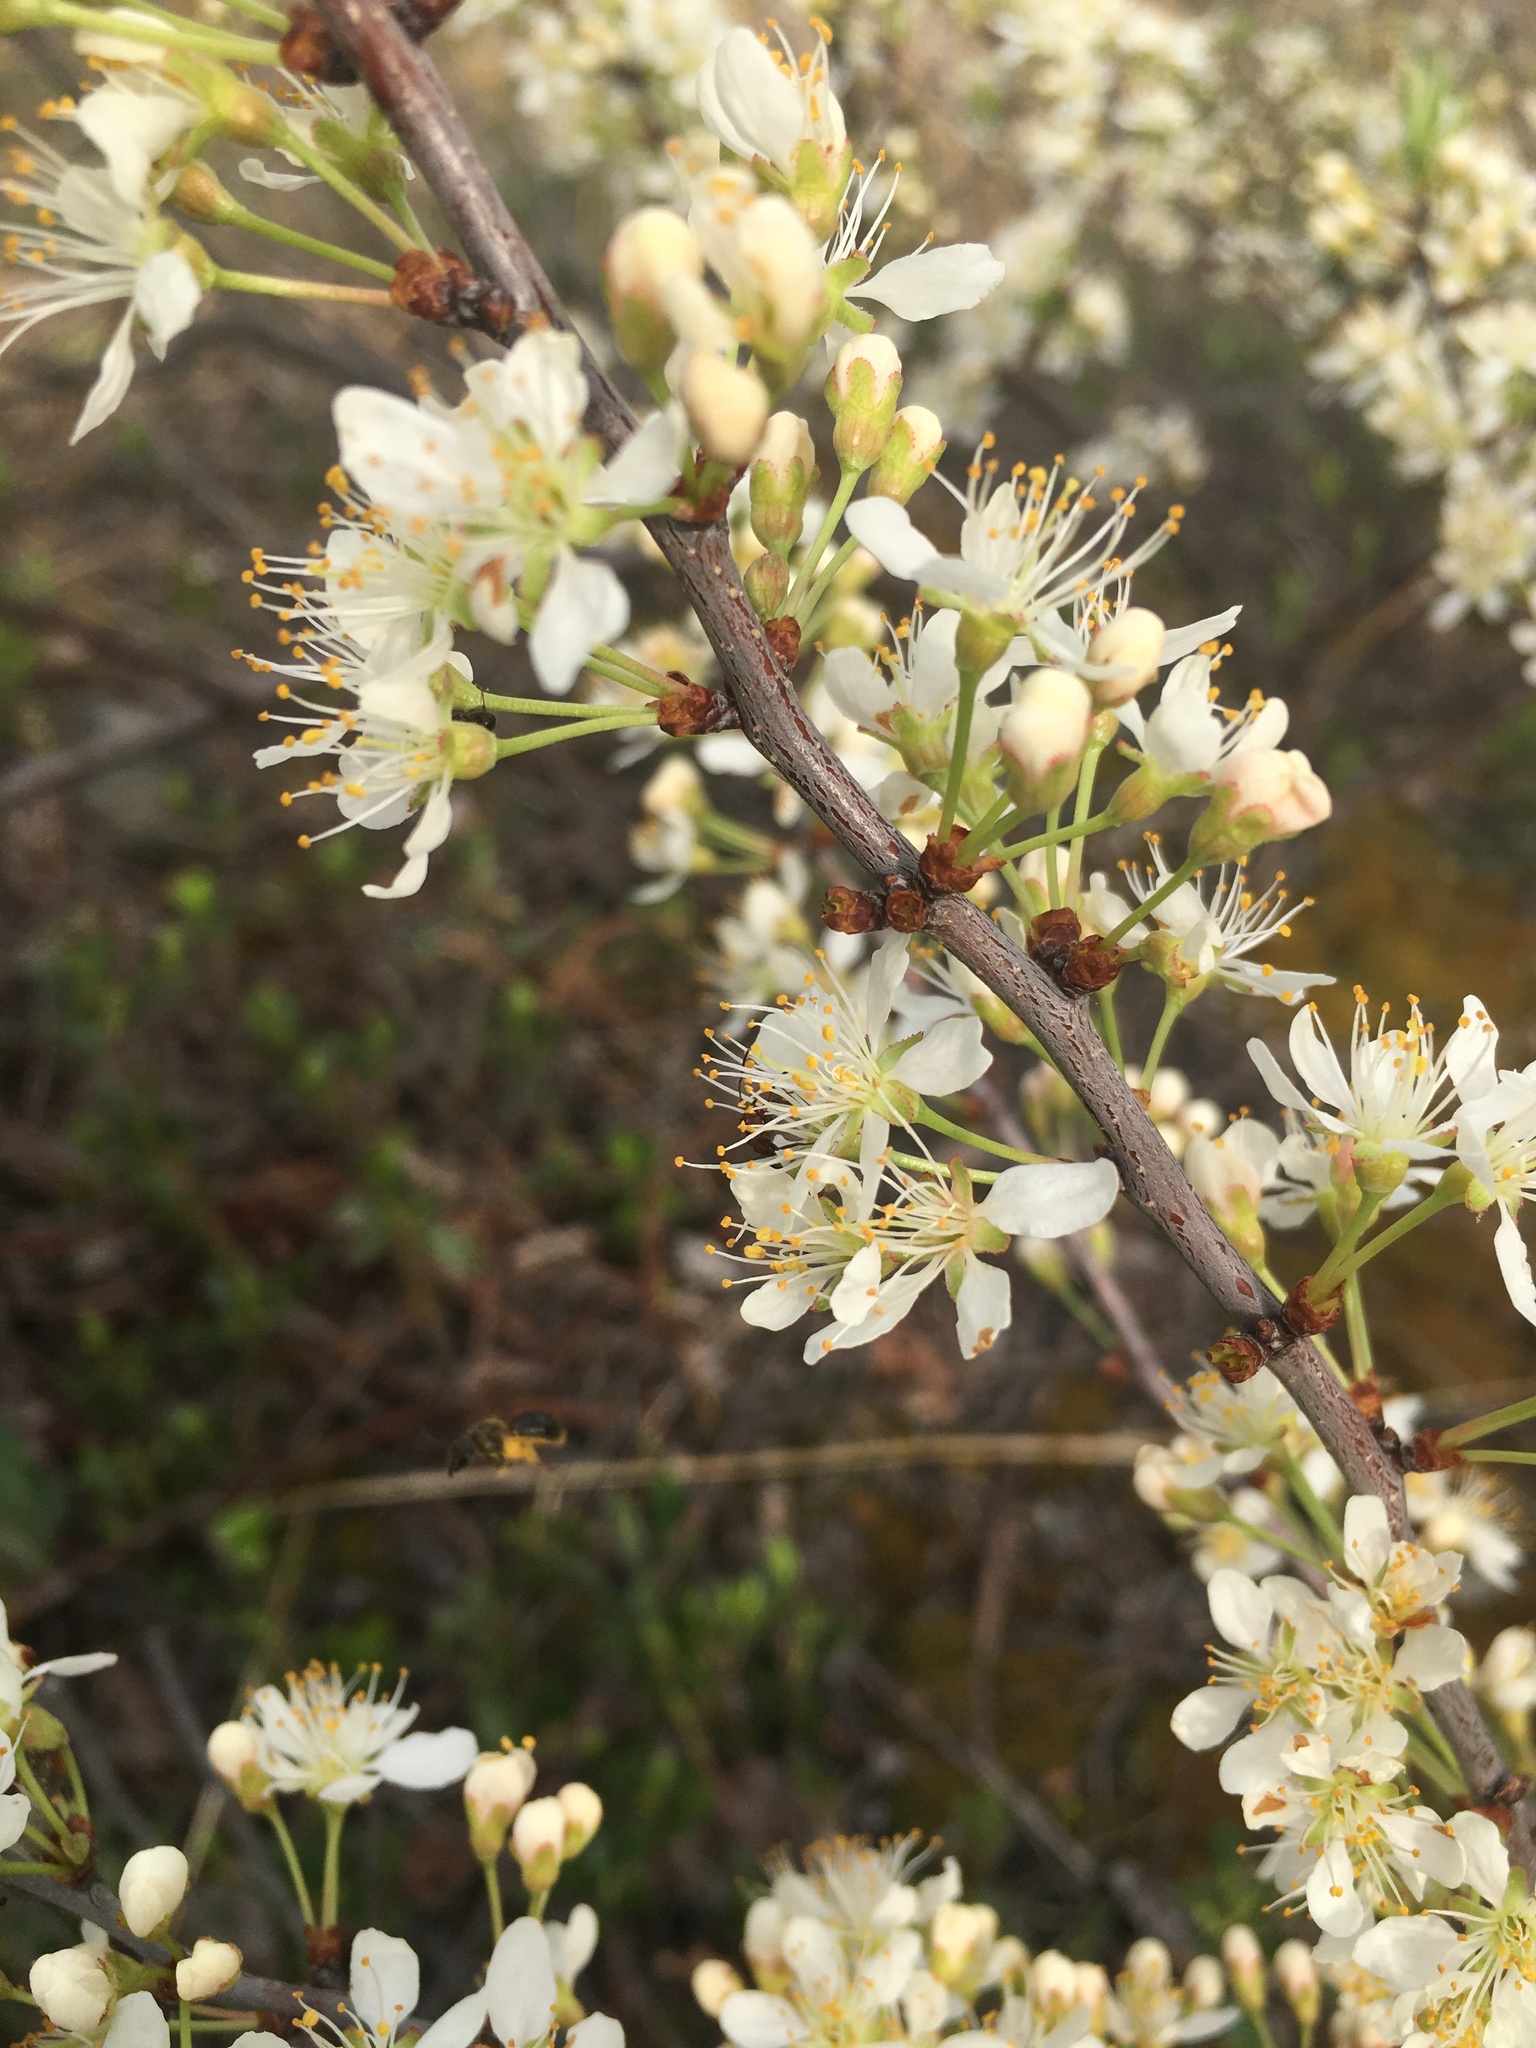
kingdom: Plantae
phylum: Tracheophyta
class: Magnoliopsida
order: Rosales
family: Rosaceae
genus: Prunus
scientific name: Prunus pumila
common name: Dwarf cherry
